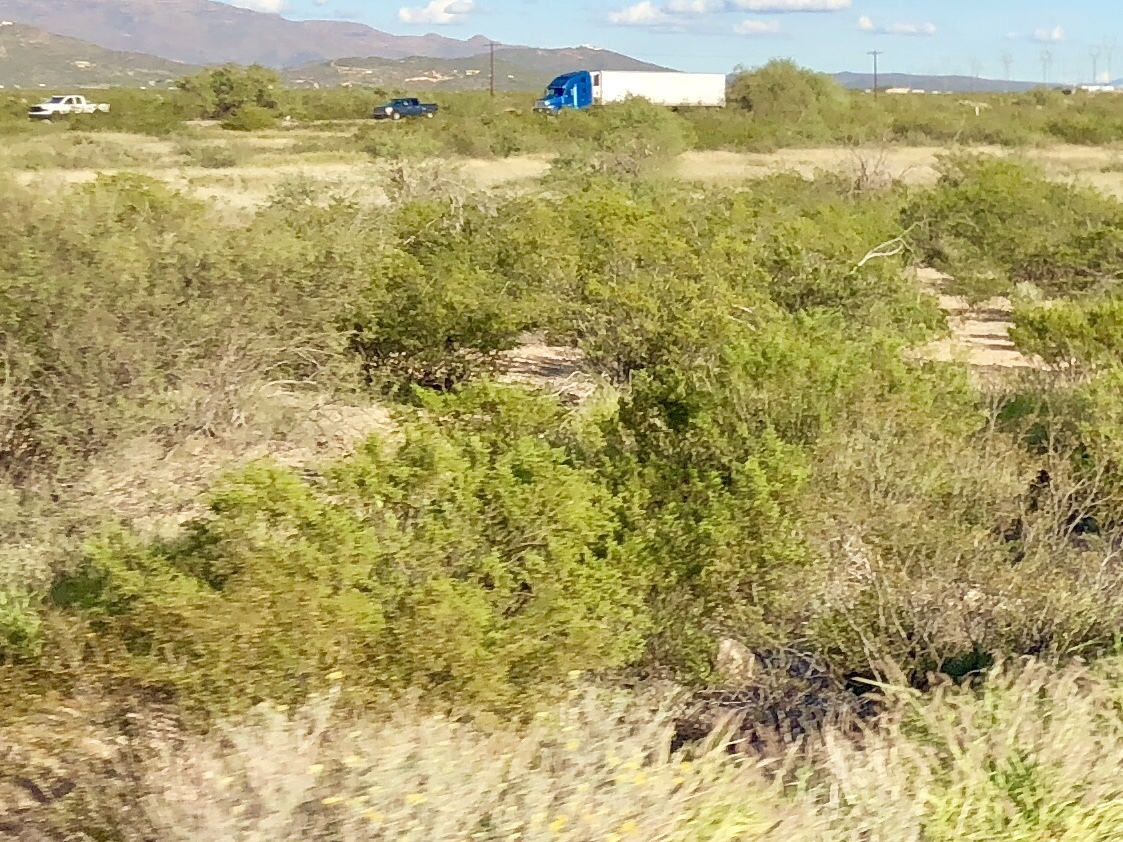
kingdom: Plantae
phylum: Tracheophyta
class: Magnoliopsida
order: Zygophyllales
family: Zygophyllaceae
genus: Larrea
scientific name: Larrea tridentata
